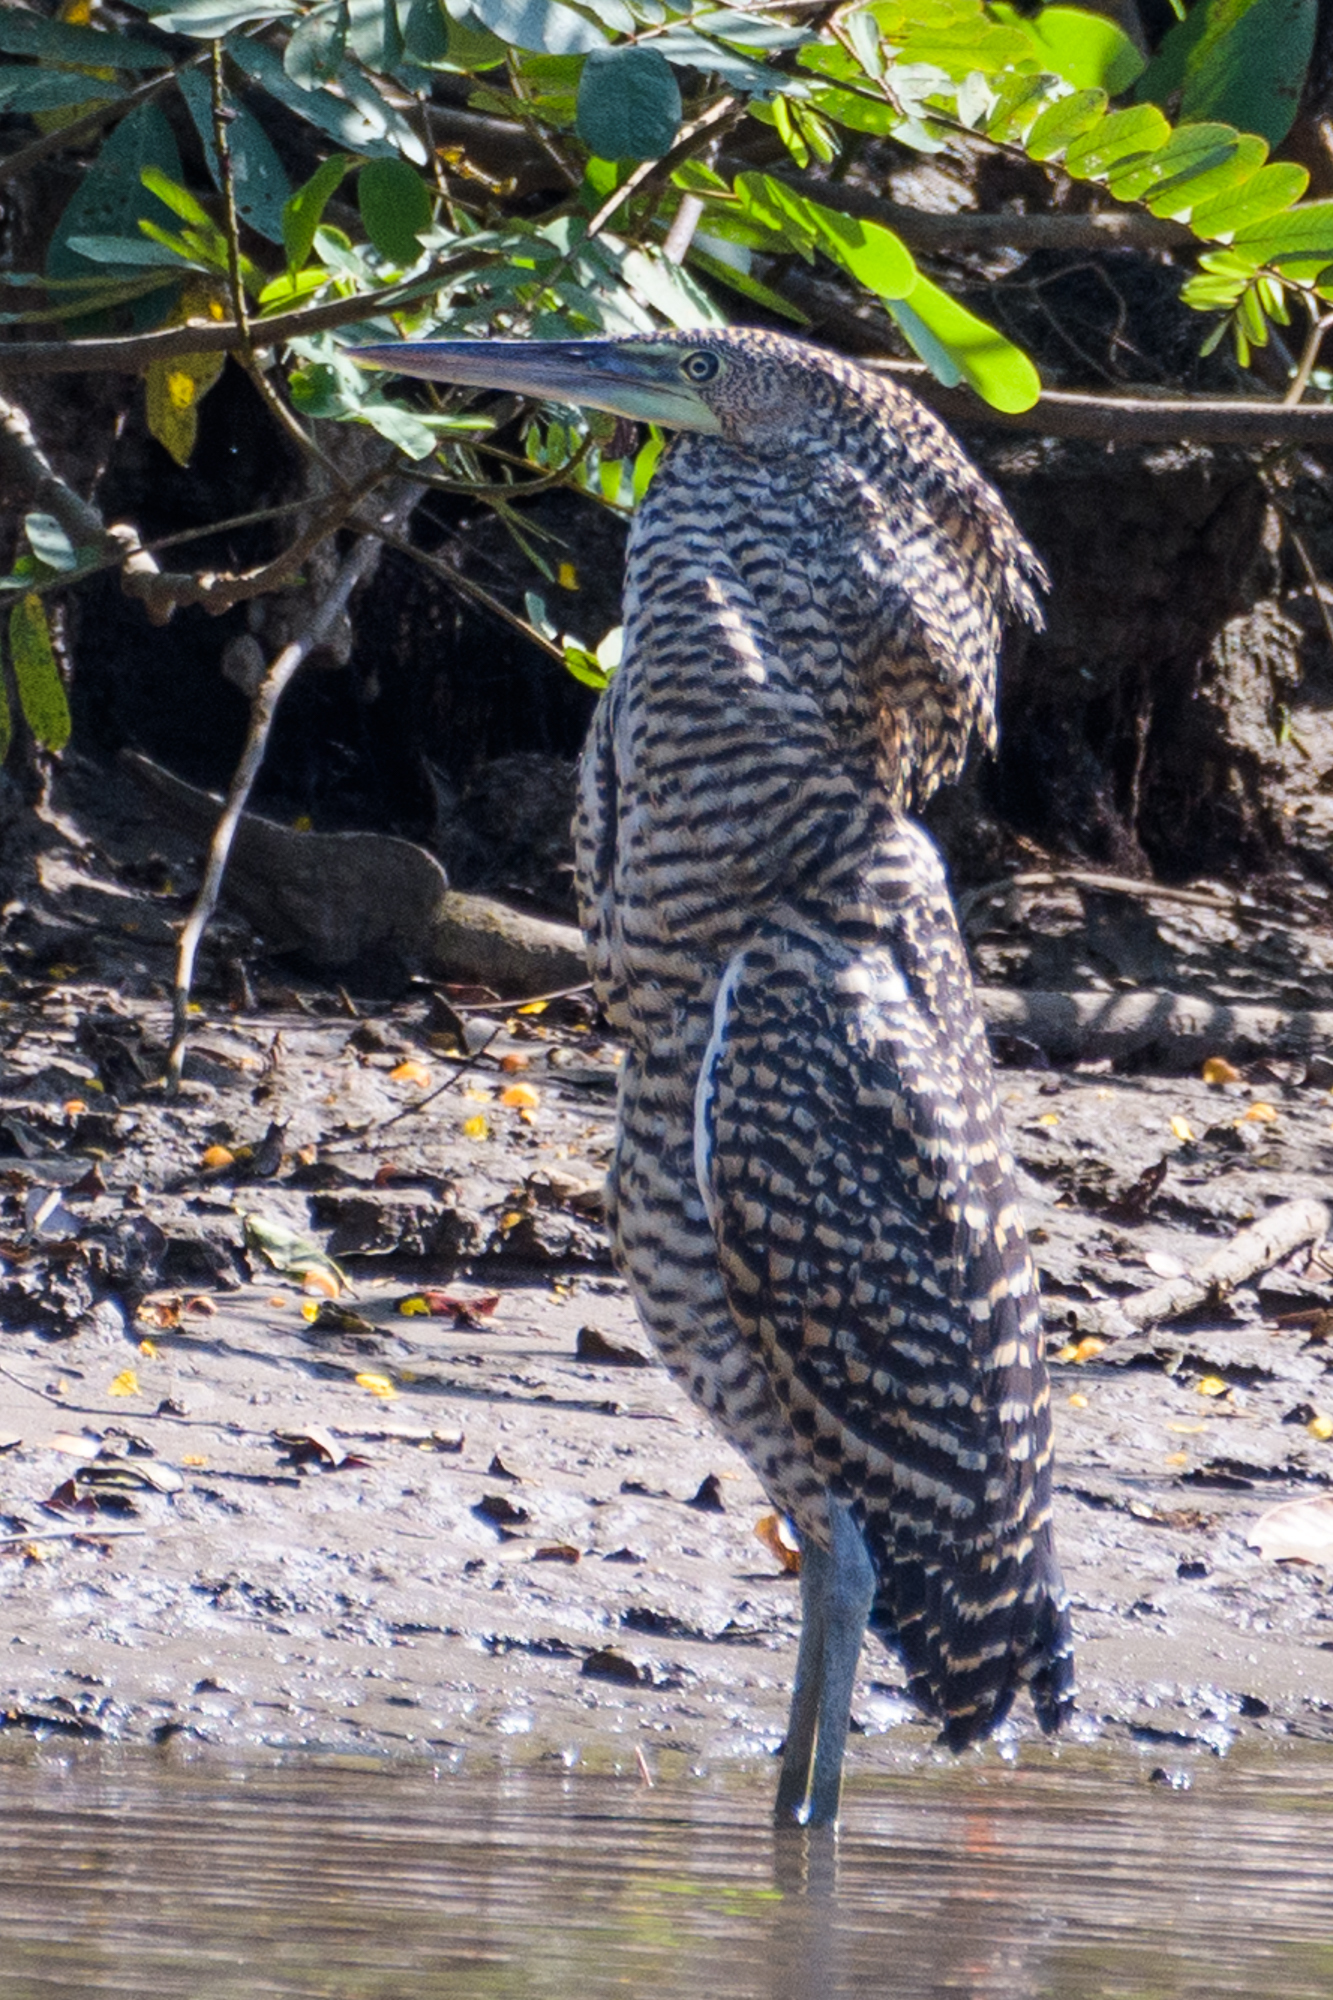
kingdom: Animalia
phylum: Chordata
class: Aves
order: Pelecaniformes
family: Ardeidae
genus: Tigrisoma
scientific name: Tigrisoma mexicanum
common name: Bare-throated tiger-heron
